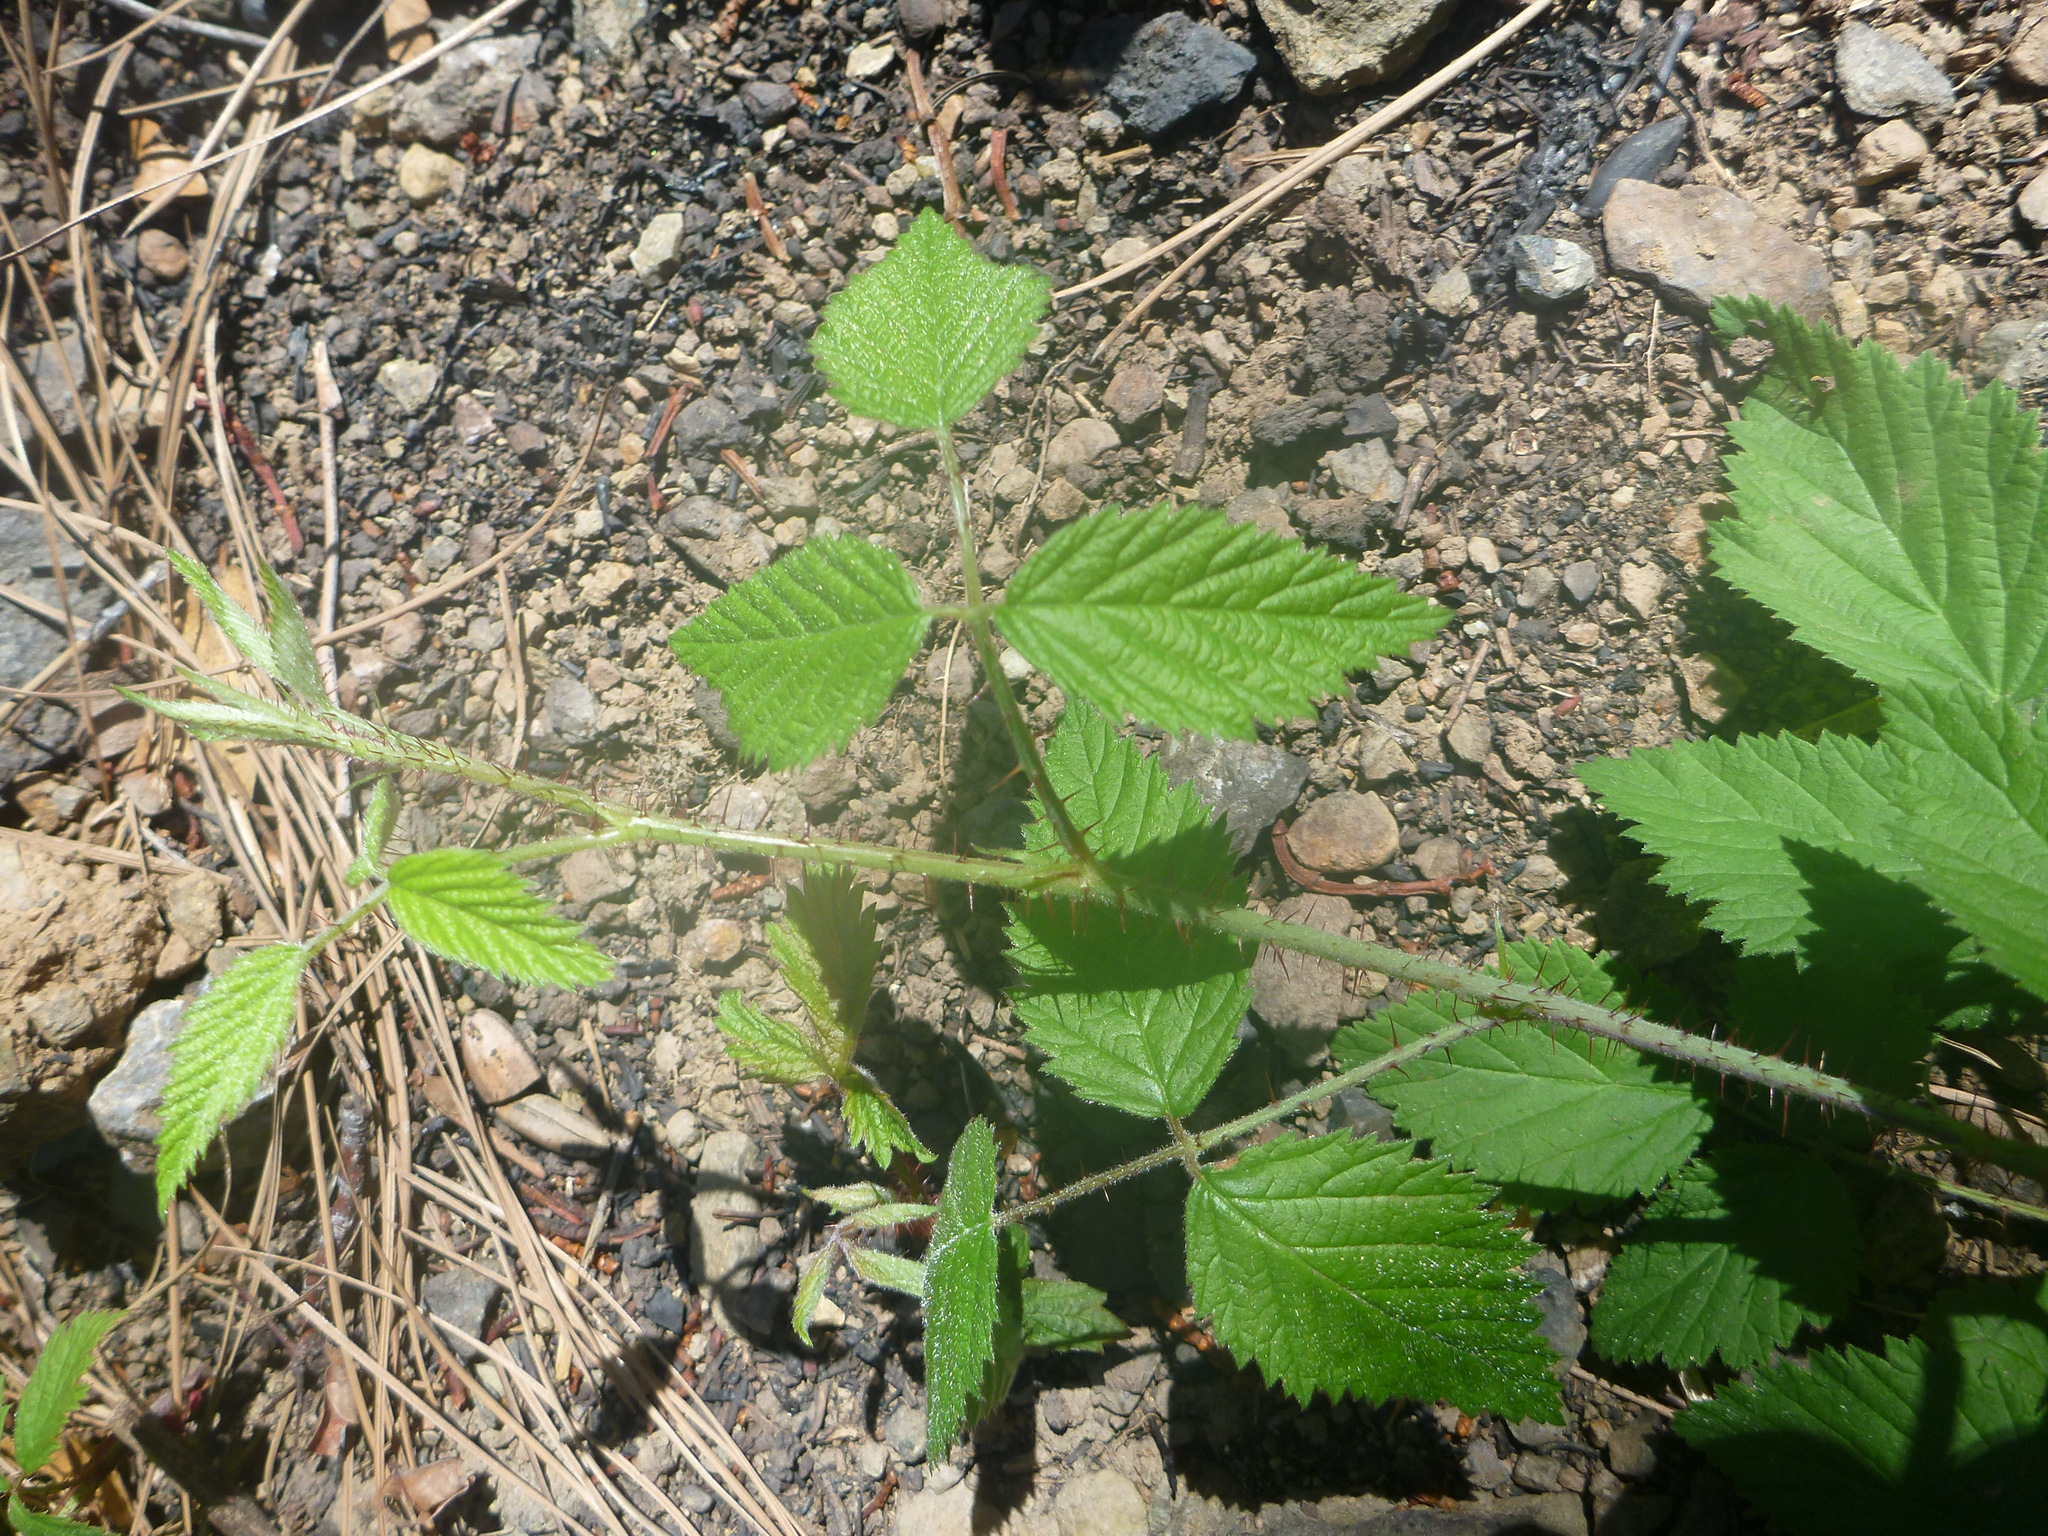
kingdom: Plantae
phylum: Tracheophyta
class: Magnoliopsida
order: Rosales
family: Rosaceae
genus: Rubus
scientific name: Rubus ursinus
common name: Pacific blackberry
